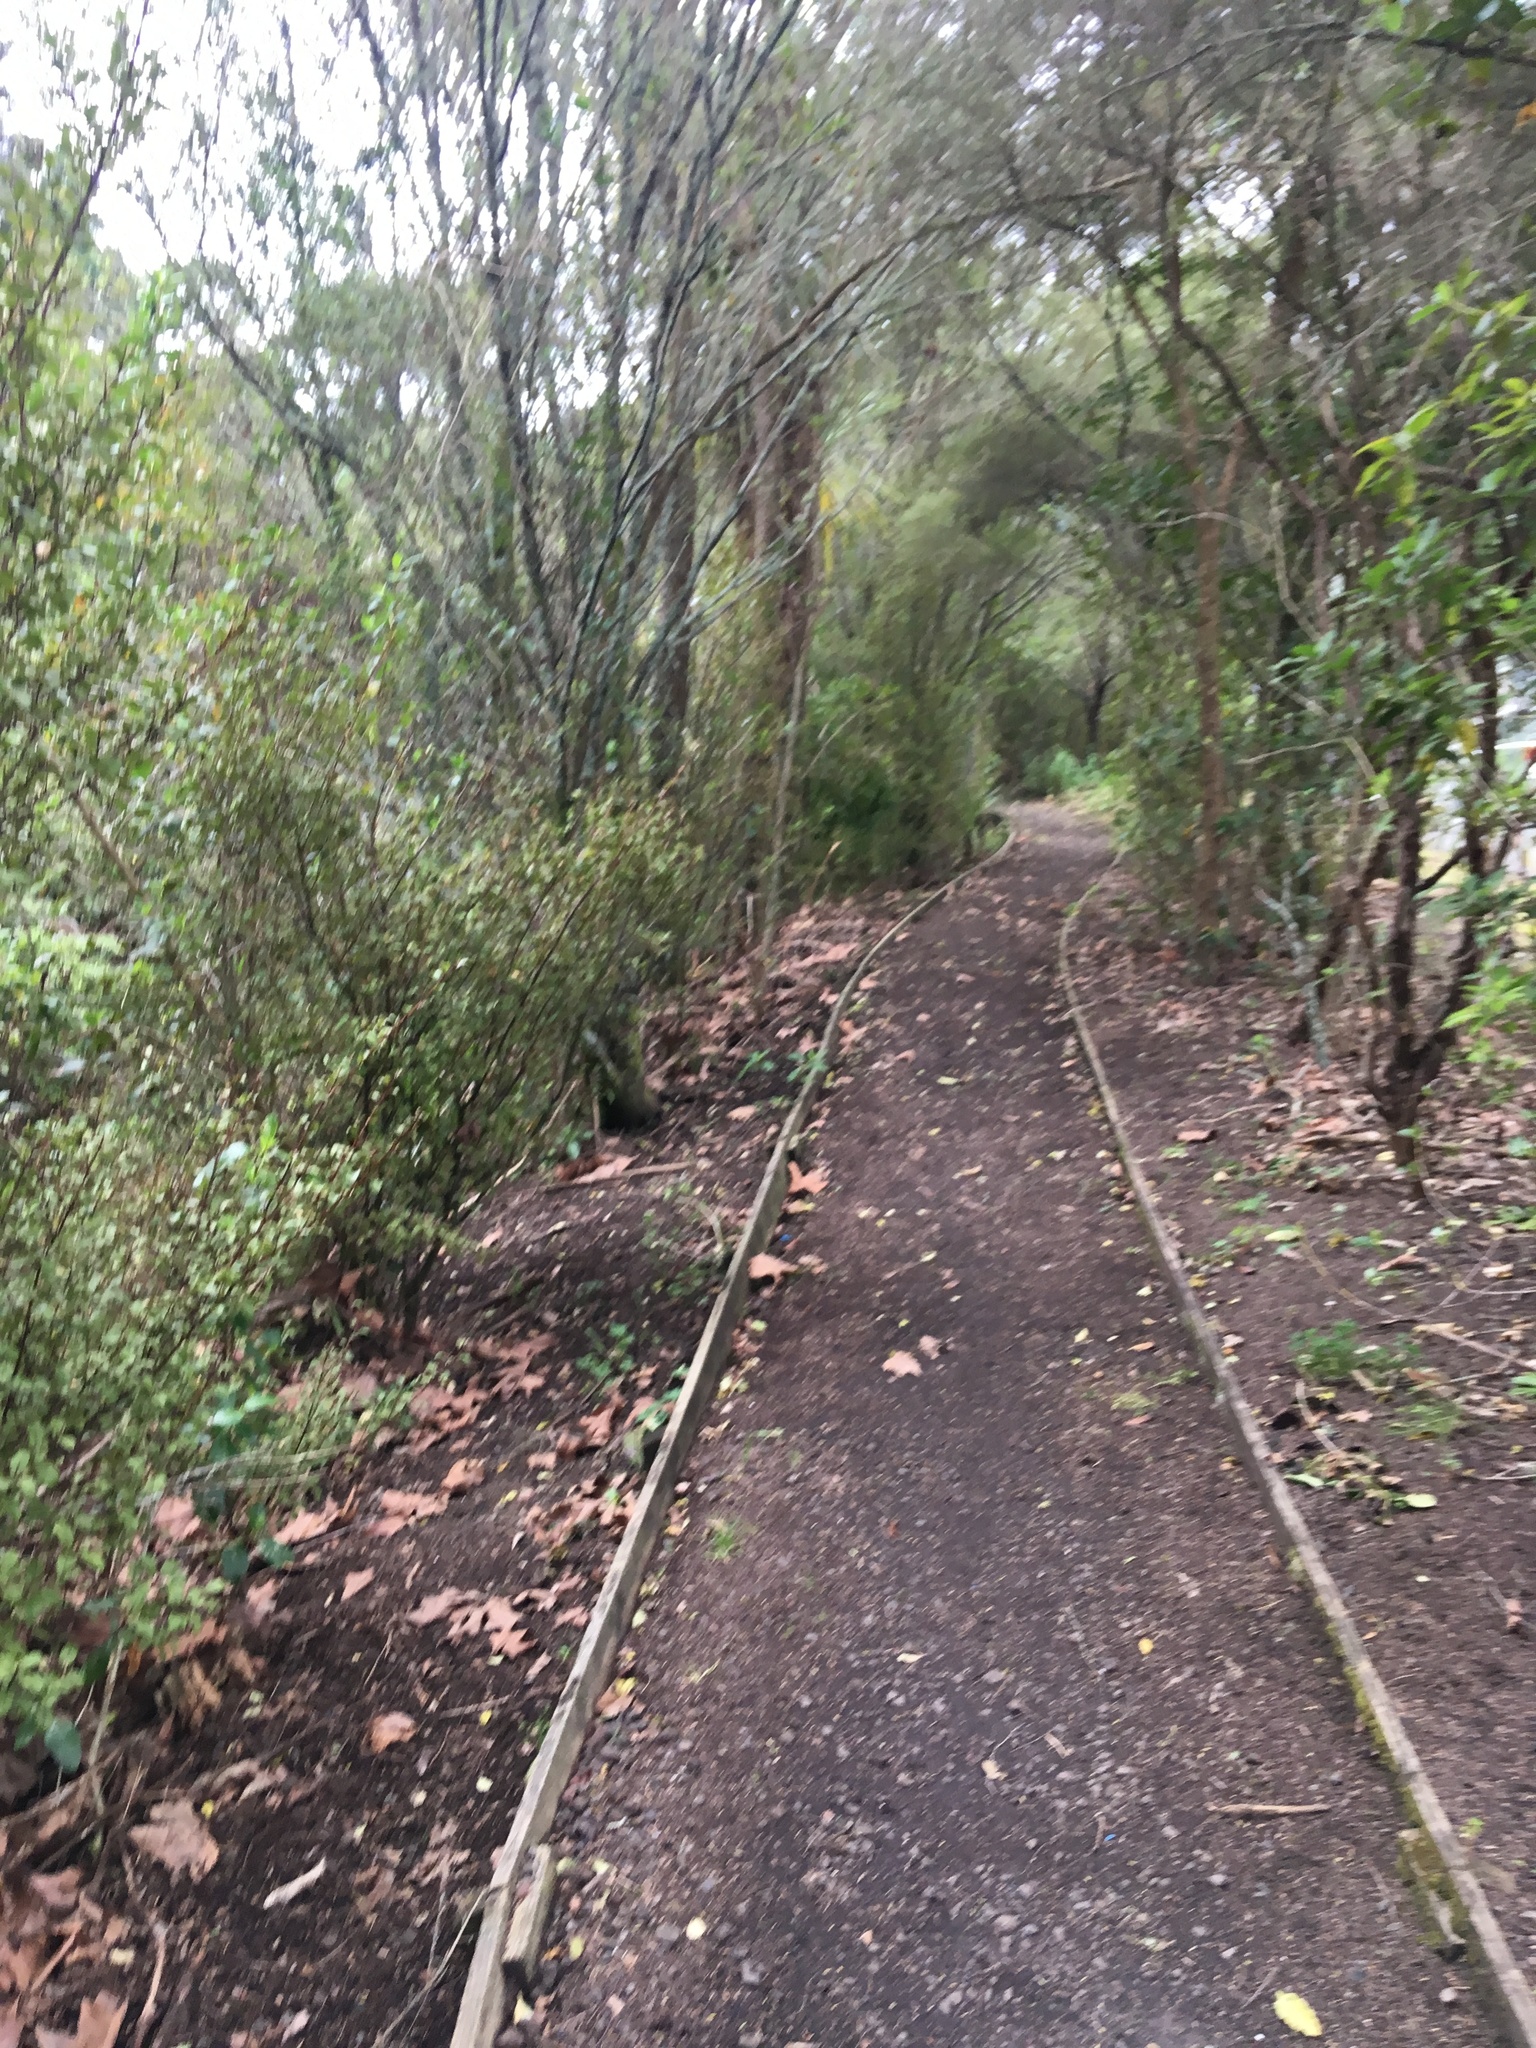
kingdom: Plantae
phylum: Tracheophyta
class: Magnoliopsida
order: Ericales
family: Primulaceae
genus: Myrsine
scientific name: Myrsine australis
